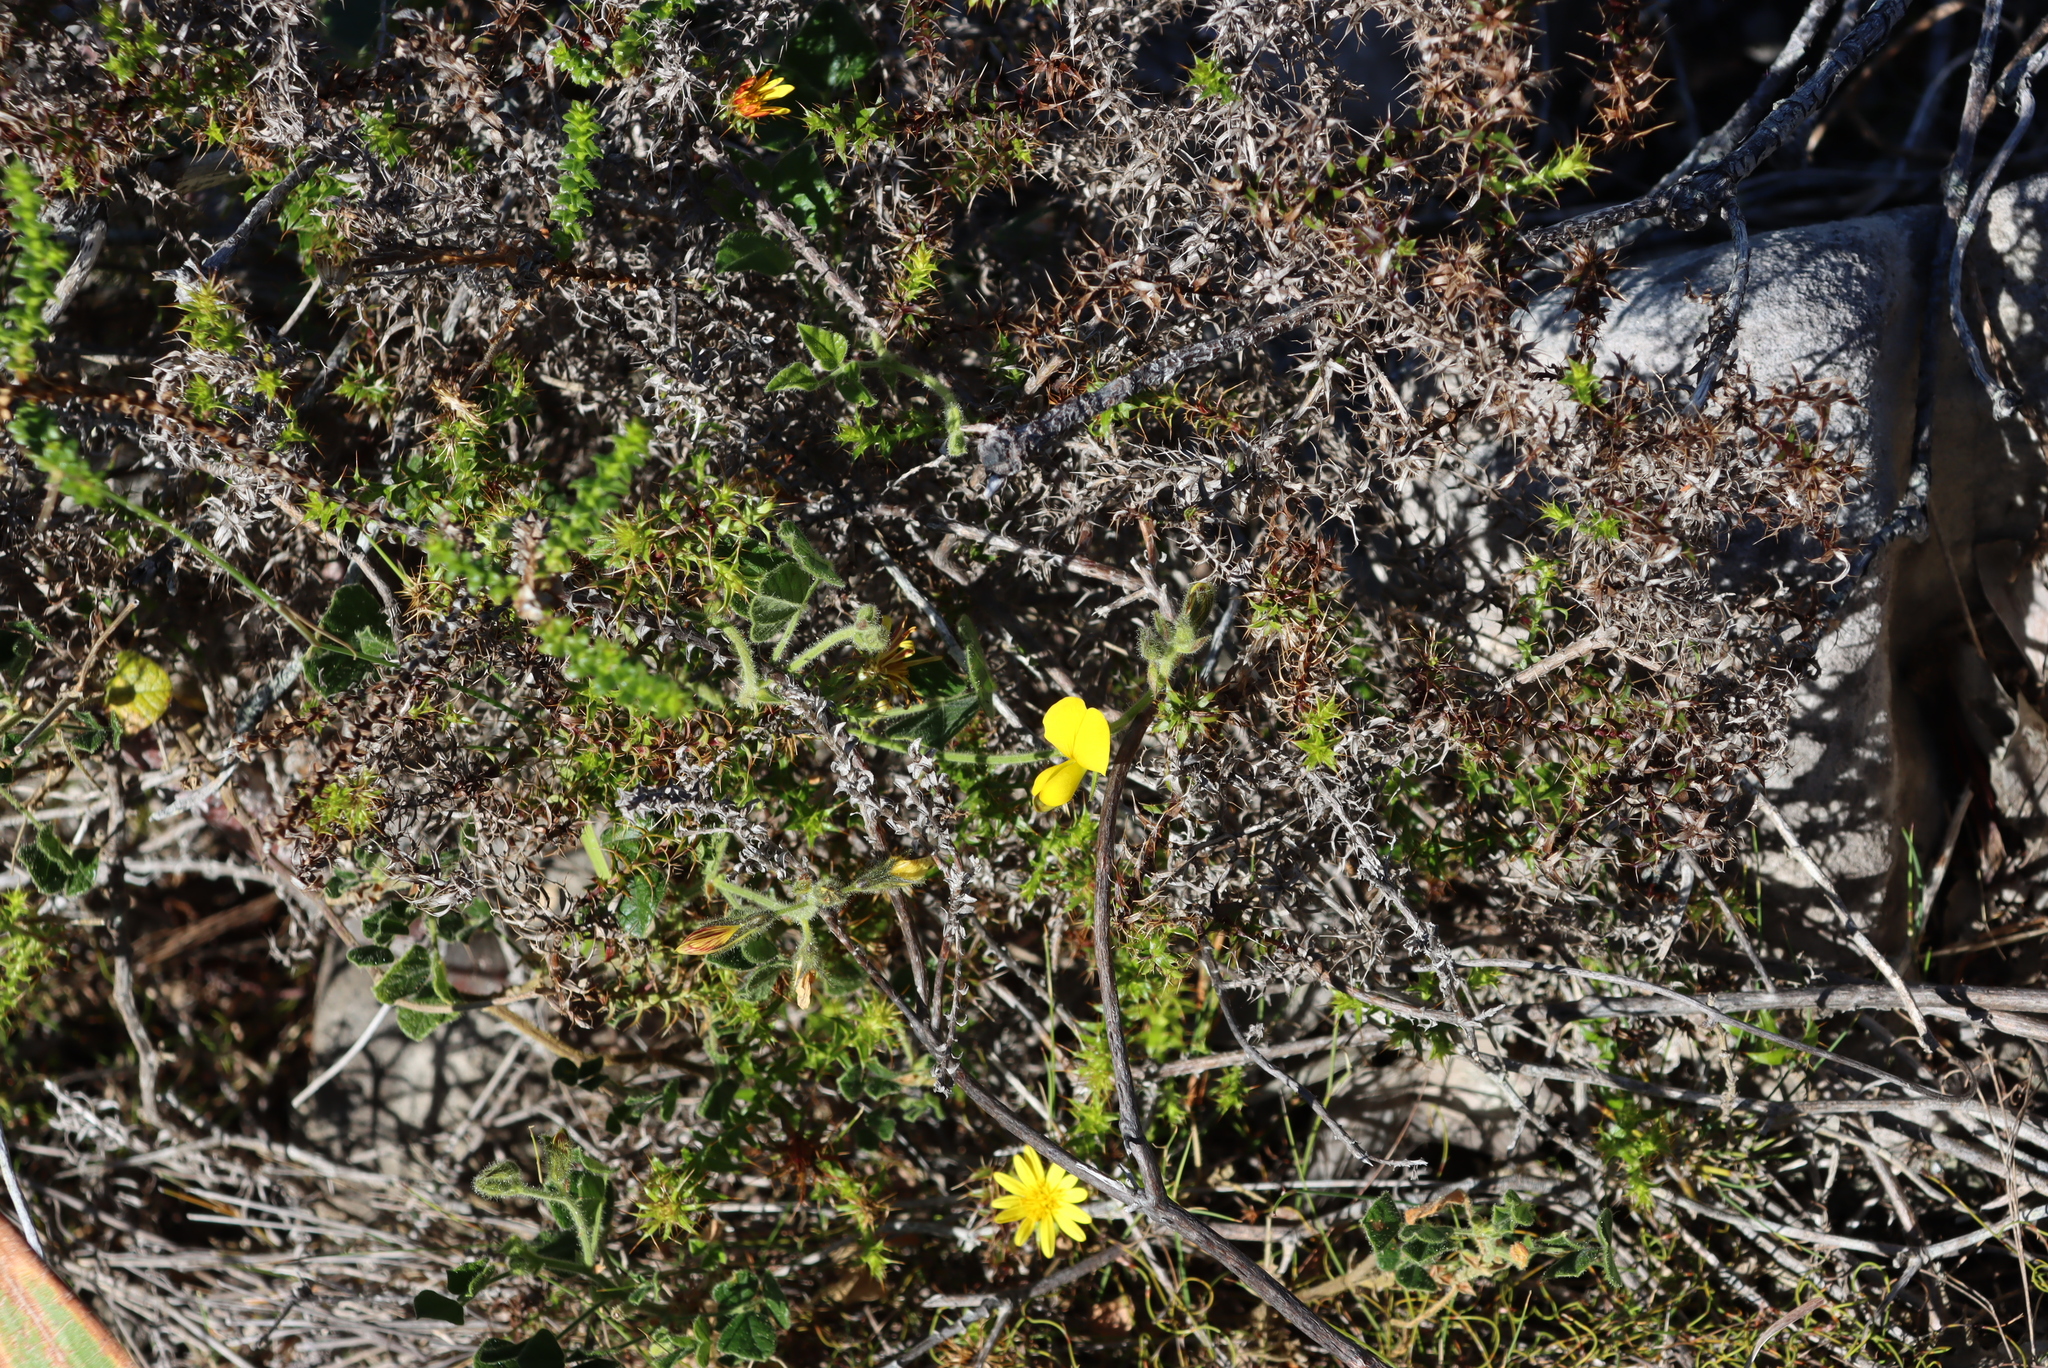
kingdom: Plantae
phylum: Tracheophyta
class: Magnoliopsida
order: Asterales
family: Asteraceae
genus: Cullumia
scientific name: Cullumia setosa
